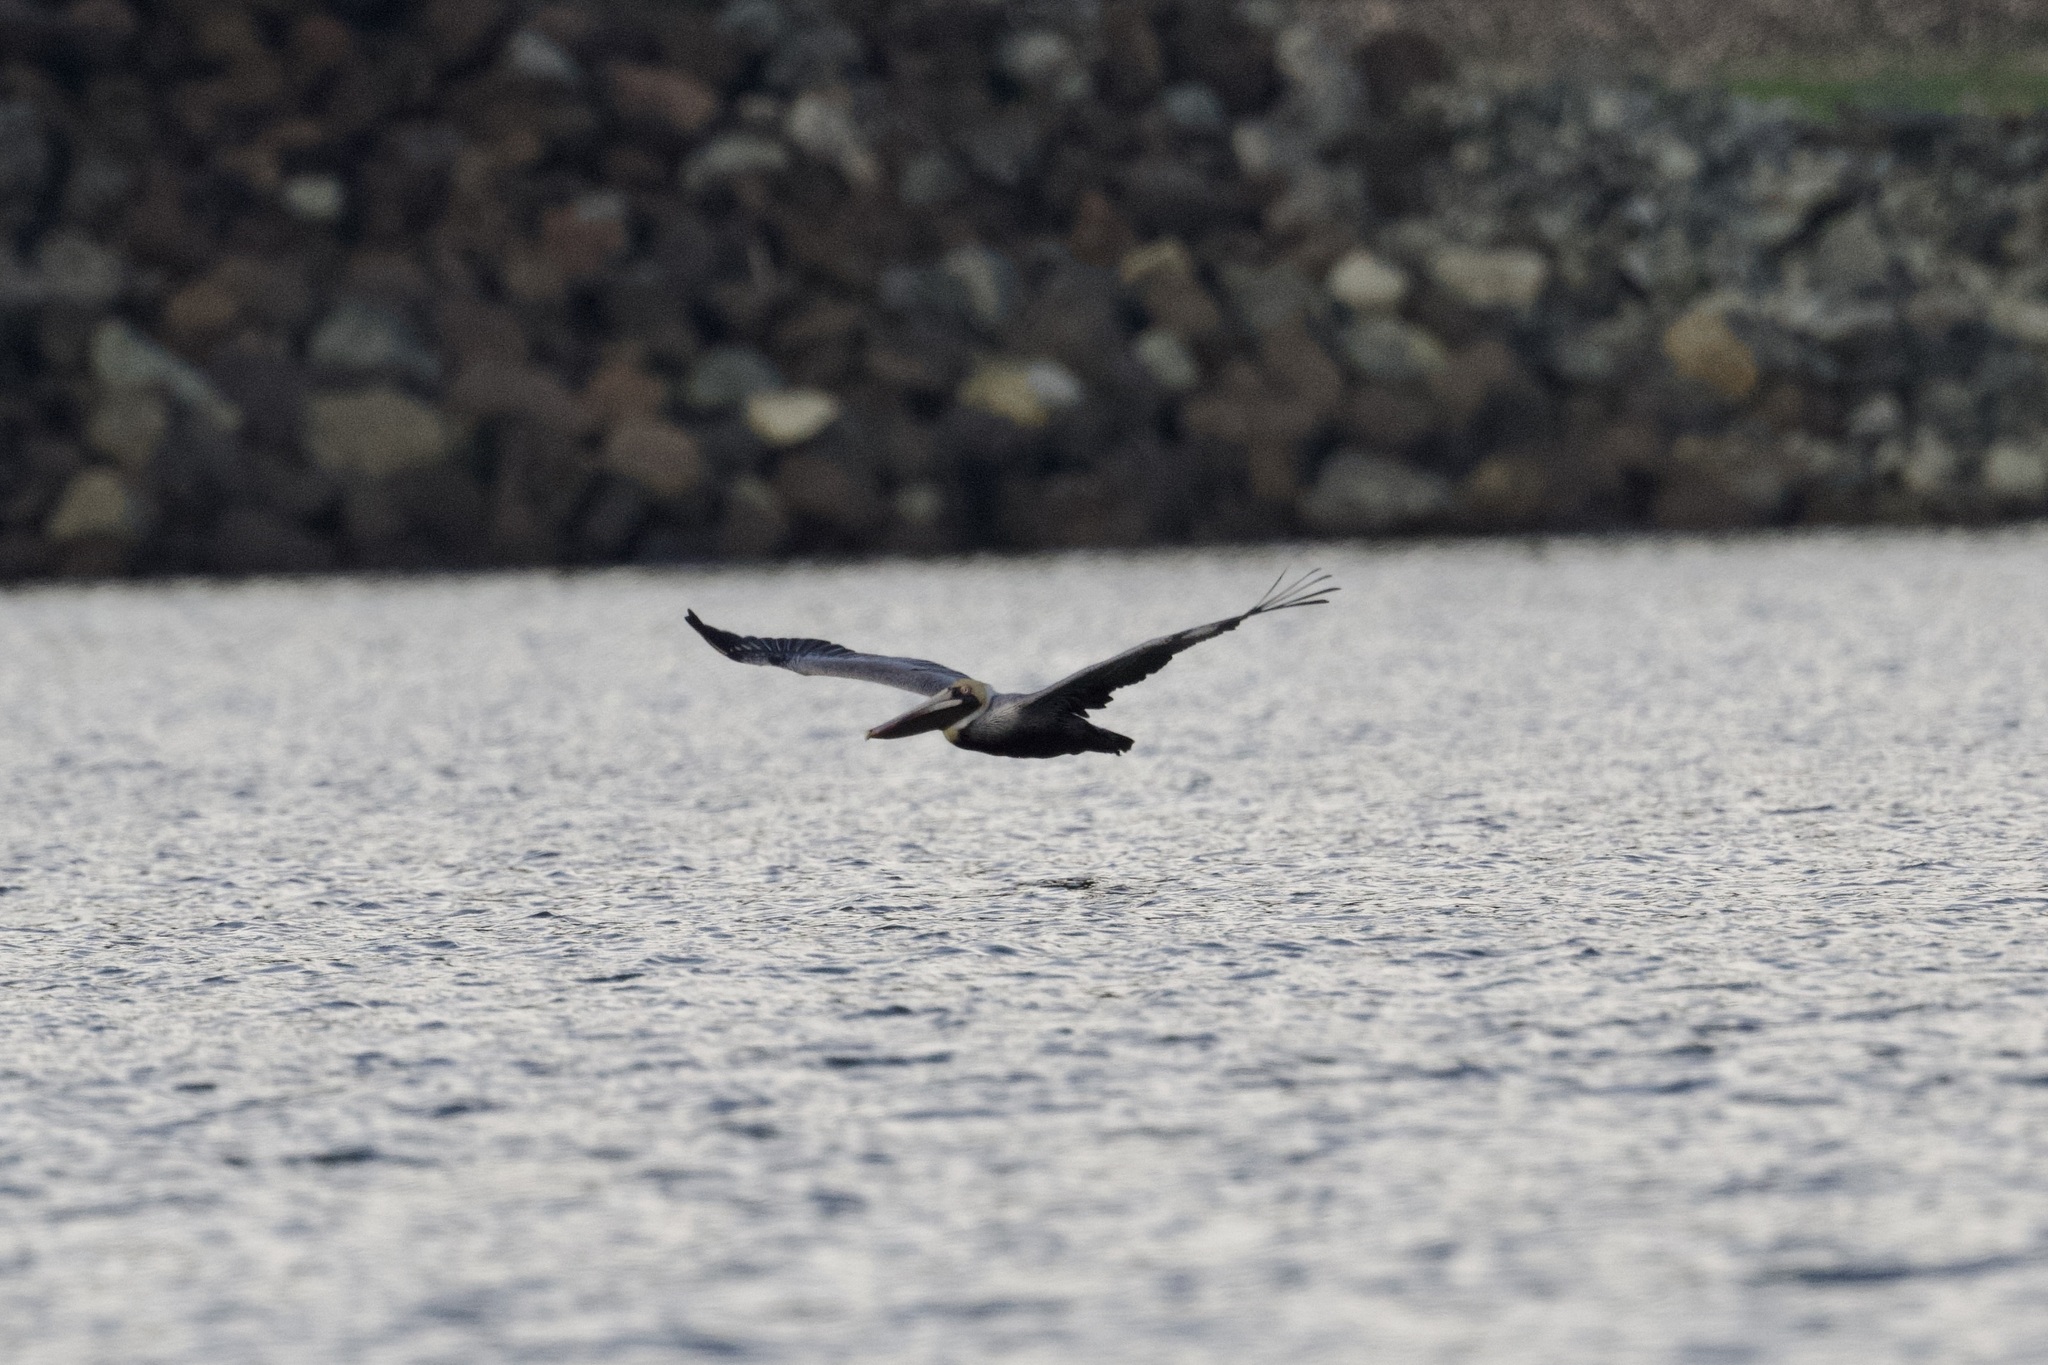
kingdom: Animalia
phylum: Chordata
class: Aves
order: Pelecaniformes
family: Pelecanidae
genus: Pelecanus
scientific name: Pelecanus occidentalis
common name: Brown pelican
